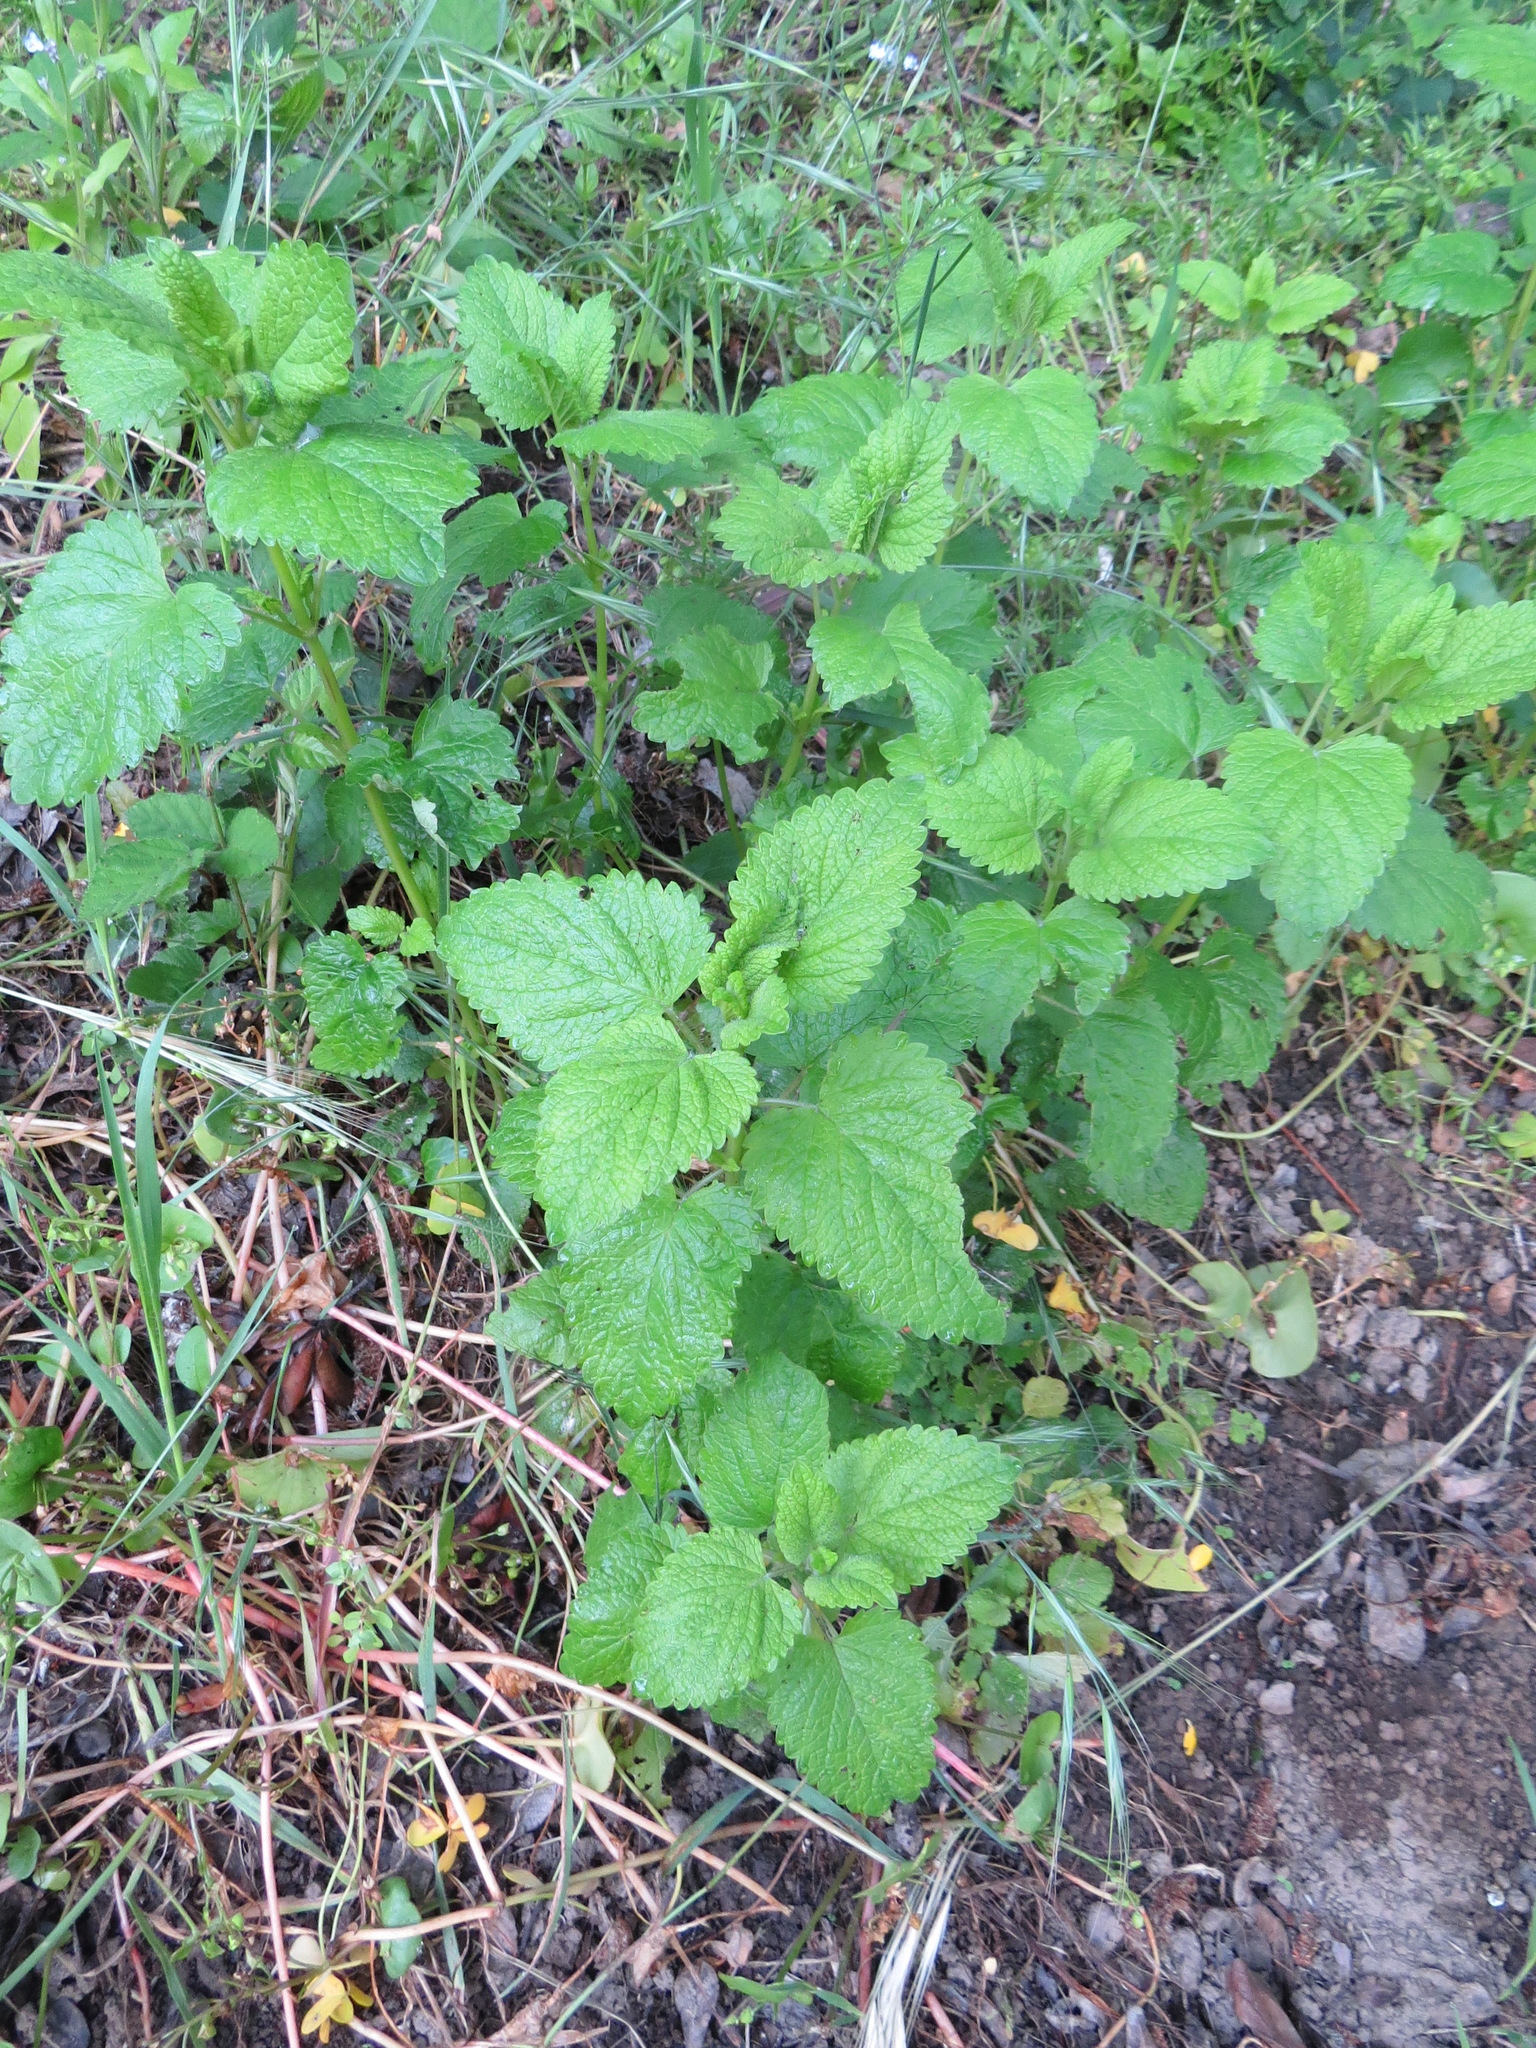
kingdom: Plantae
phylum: Tracheophyta
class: Magnoliopsida
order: Lamiales
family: Lamiaceae
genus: Melissa
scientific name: Melissa officinalis
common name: Balm
